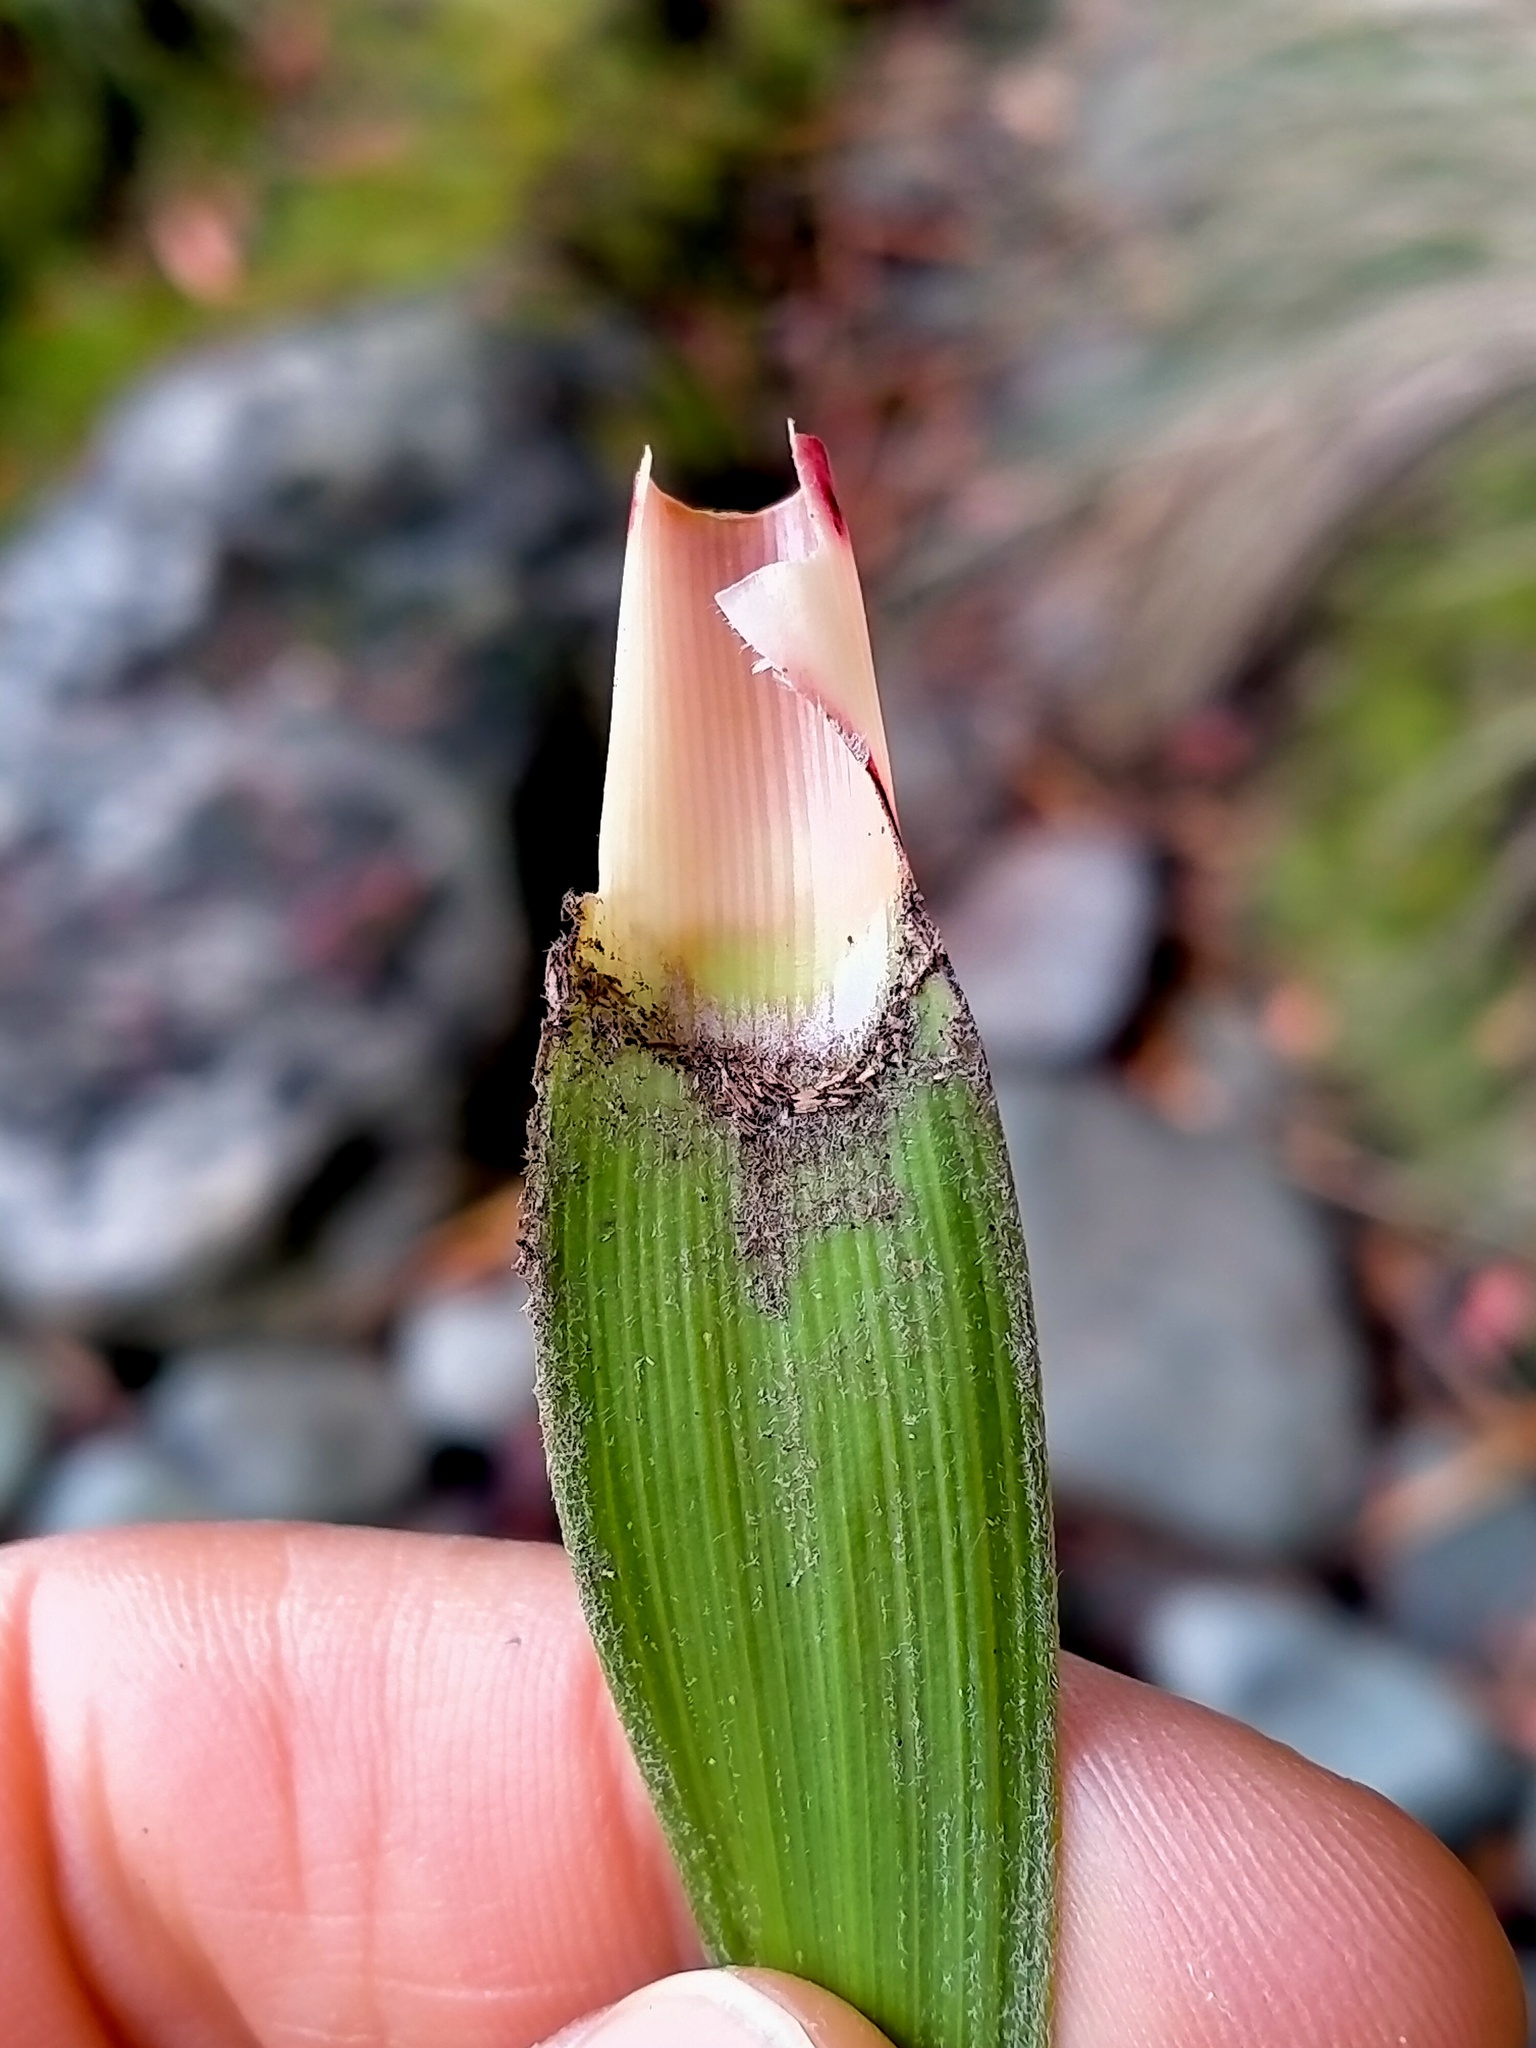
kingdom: Plantae
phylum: Tracheophyta
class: Magnoliopsida
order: Ericales
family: Ericaceae
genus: Dracophyllum
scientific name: Dracophyllum cockayneanum
